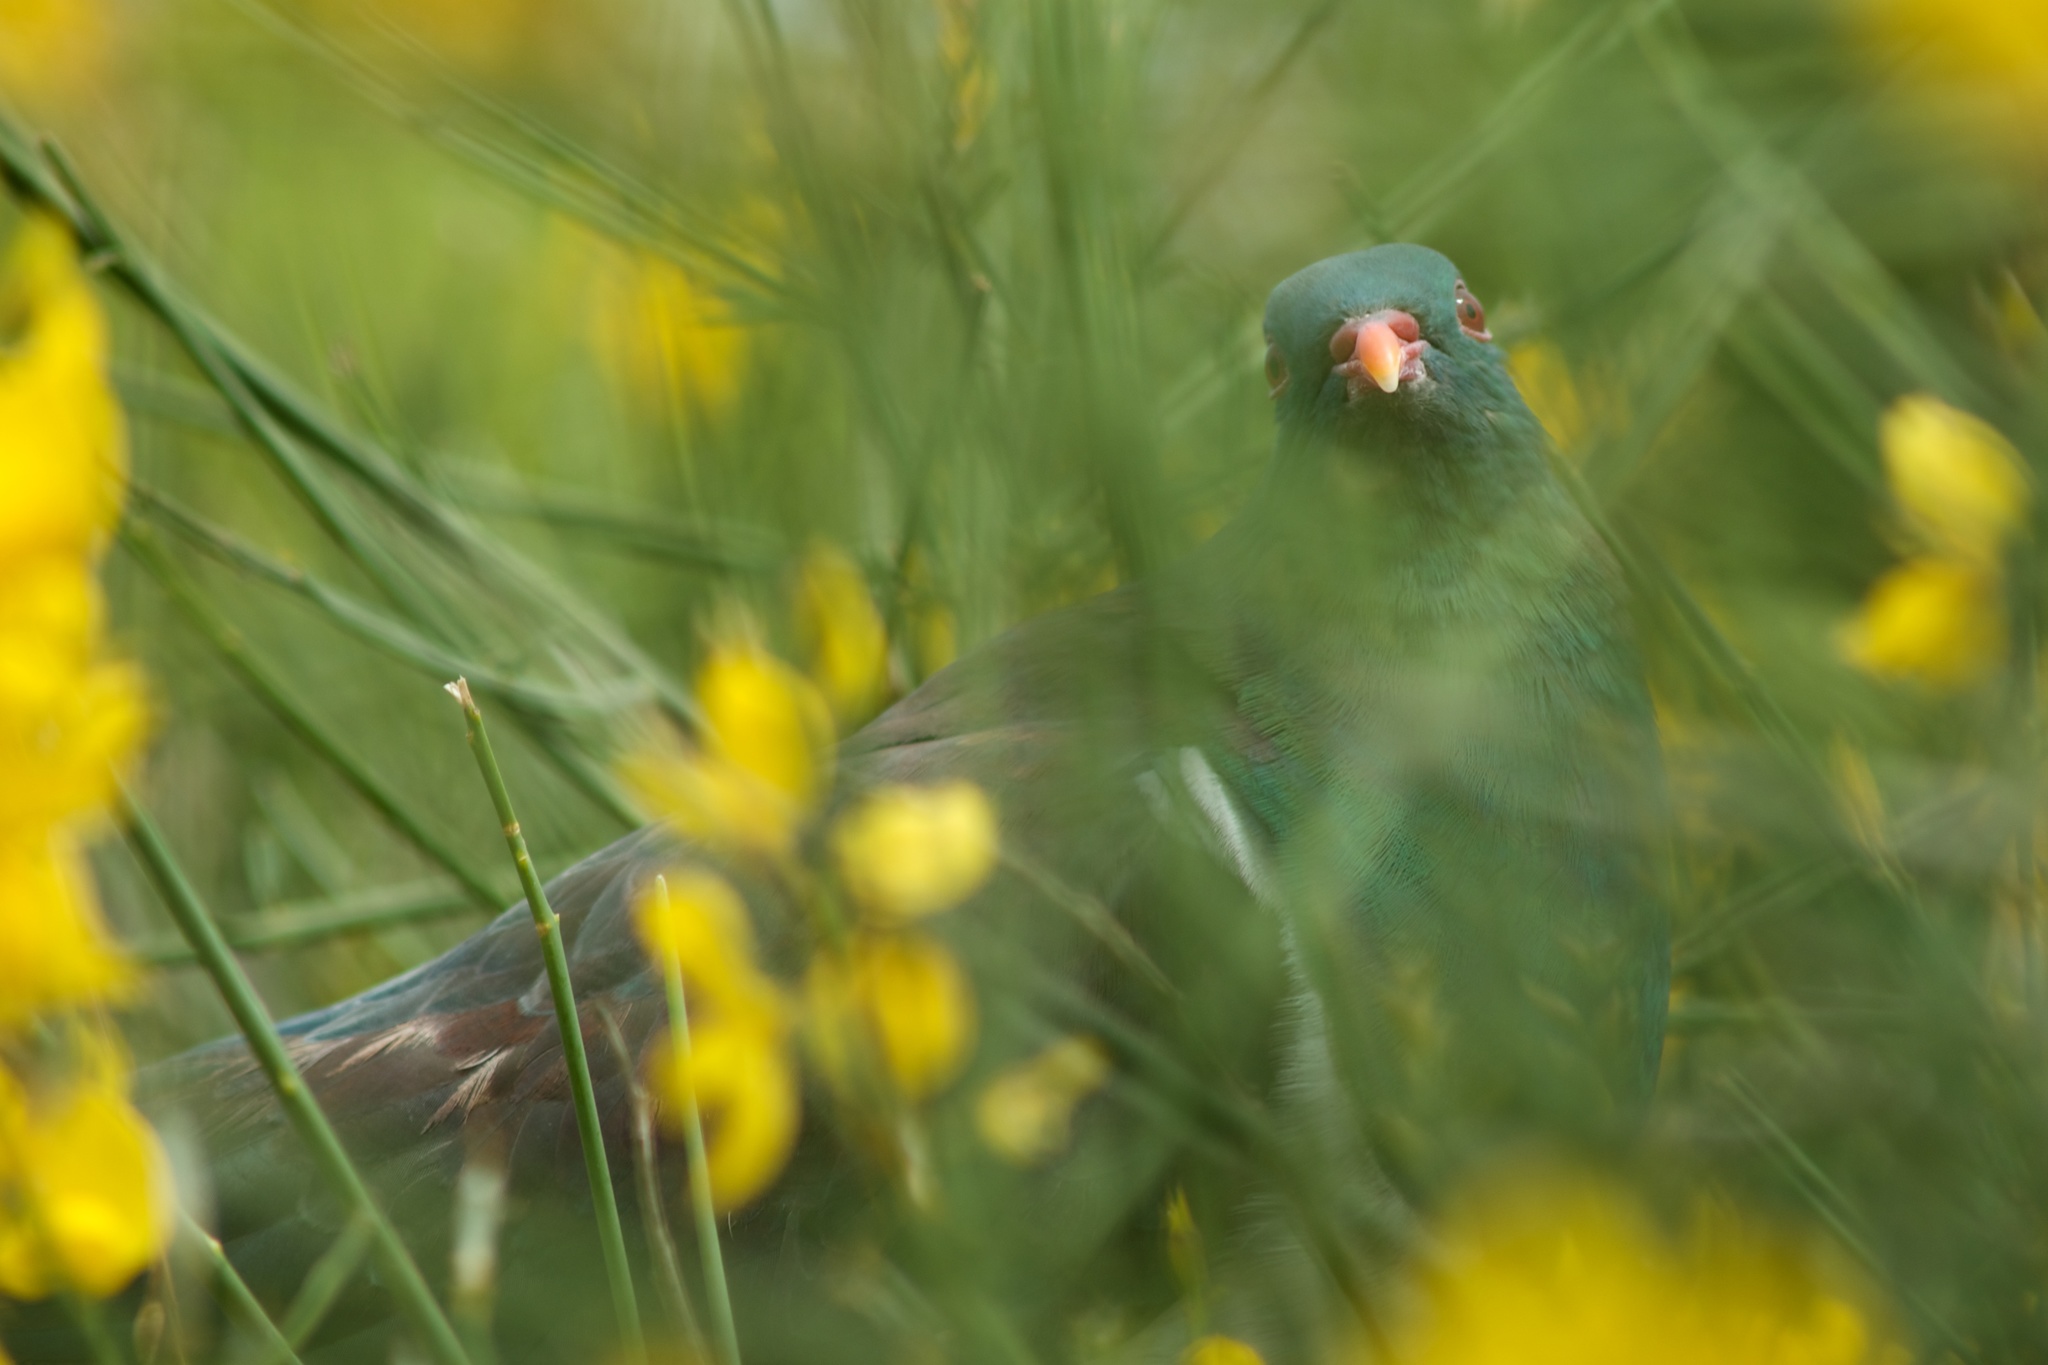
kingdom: Animalia
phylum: Chordata
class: Aves
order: Columbiformes
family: Columbidae
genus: Hemiphaga
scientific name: Hemiphaga novaeseelandiae
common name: New zealand pigeon
